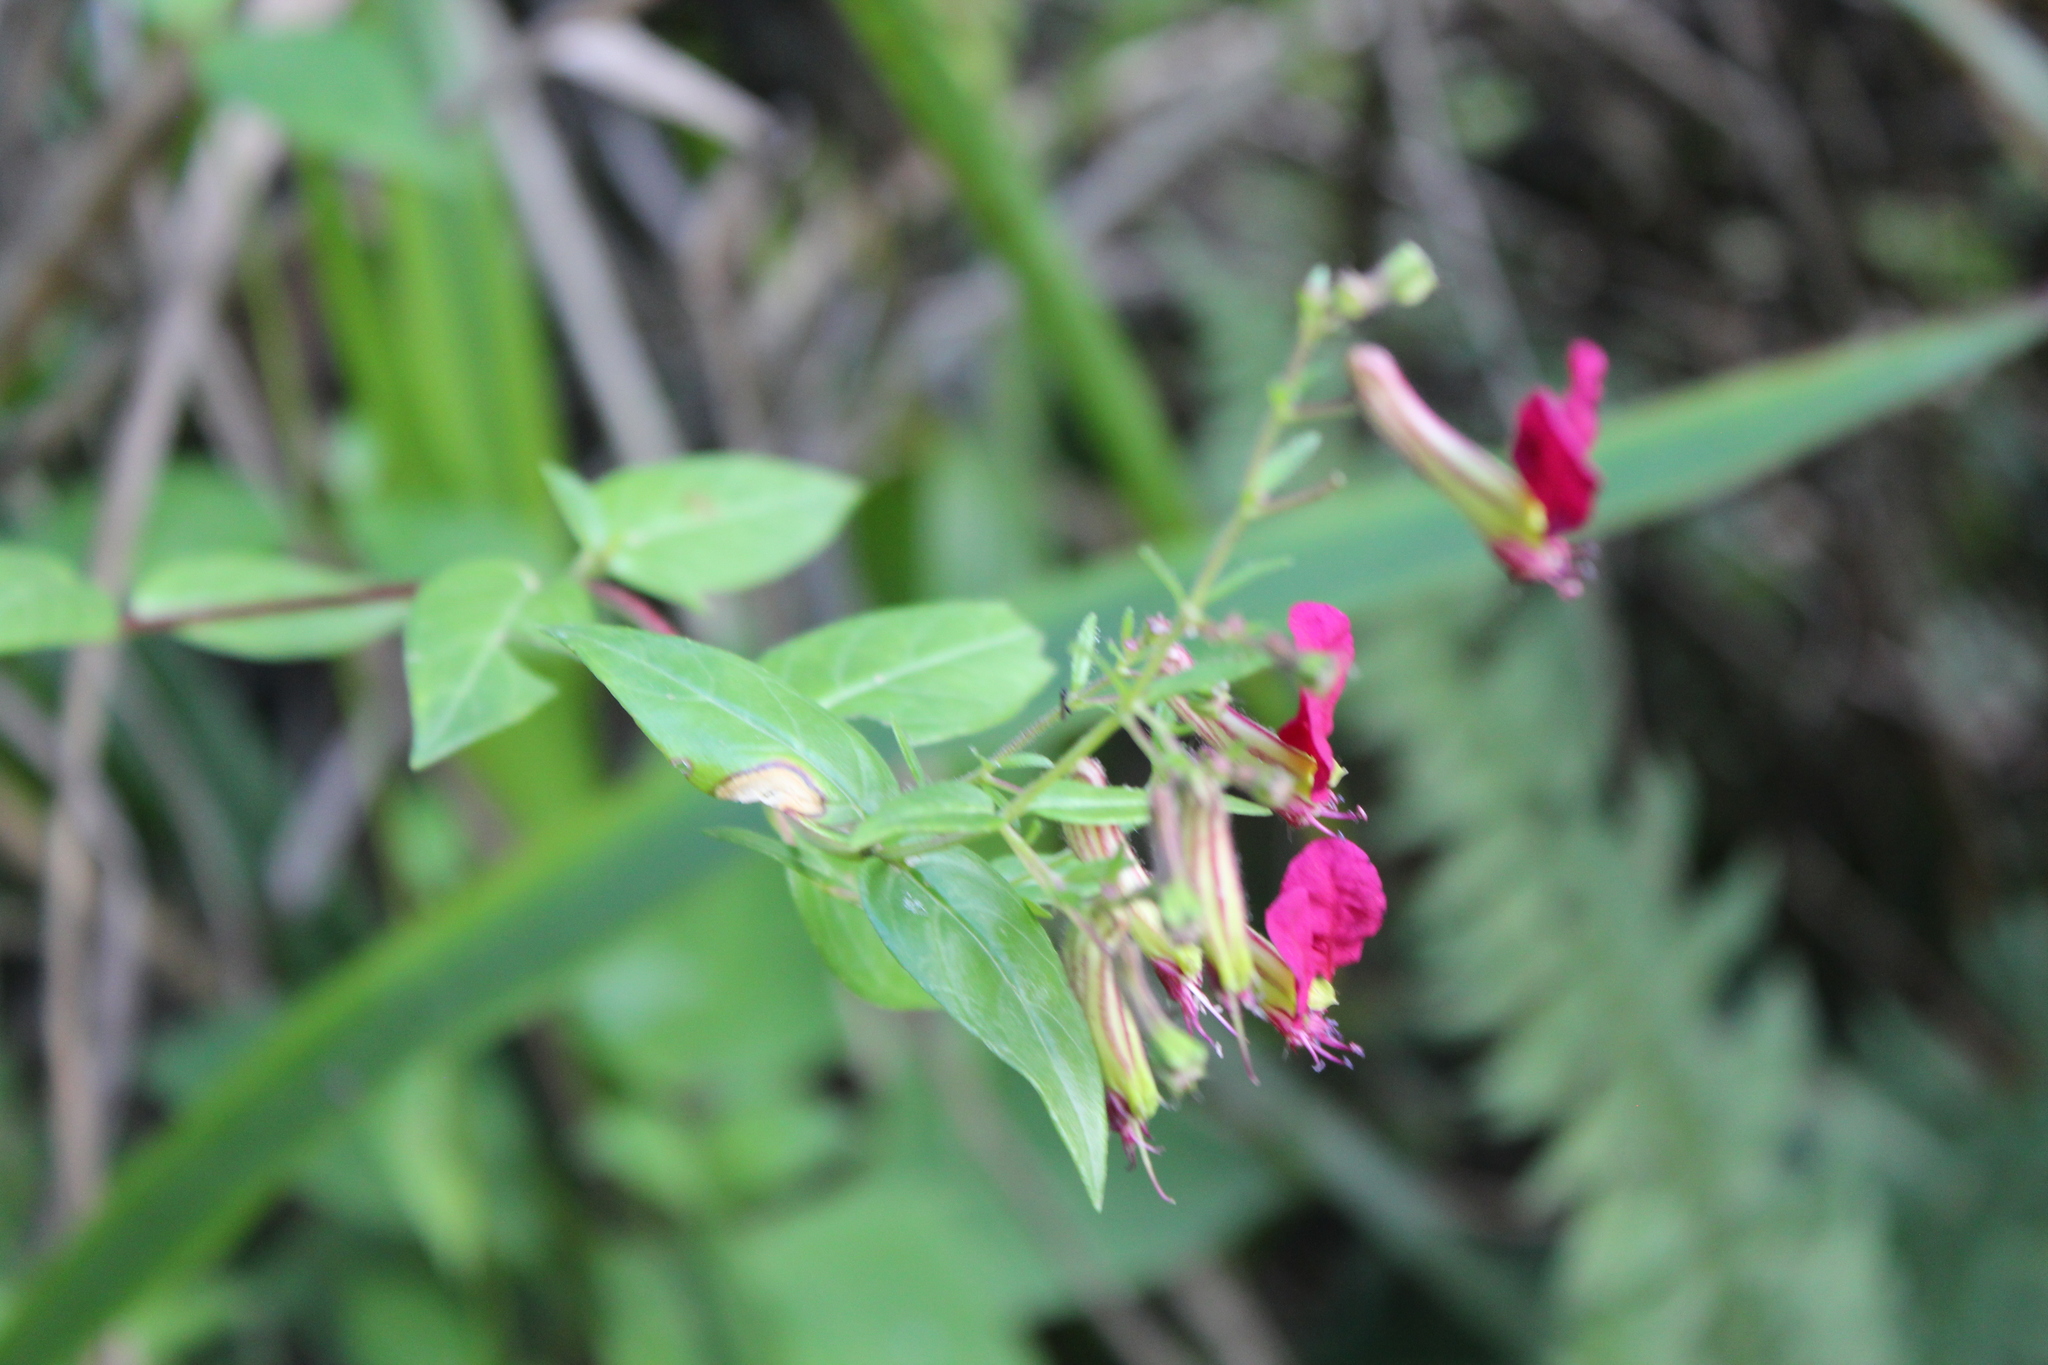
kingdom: Plantae
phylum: Tracheophyta
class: Magnoliopsida
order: Myrtales
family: Lythraceae
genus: Cuphea
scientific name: Cuphea cordata
